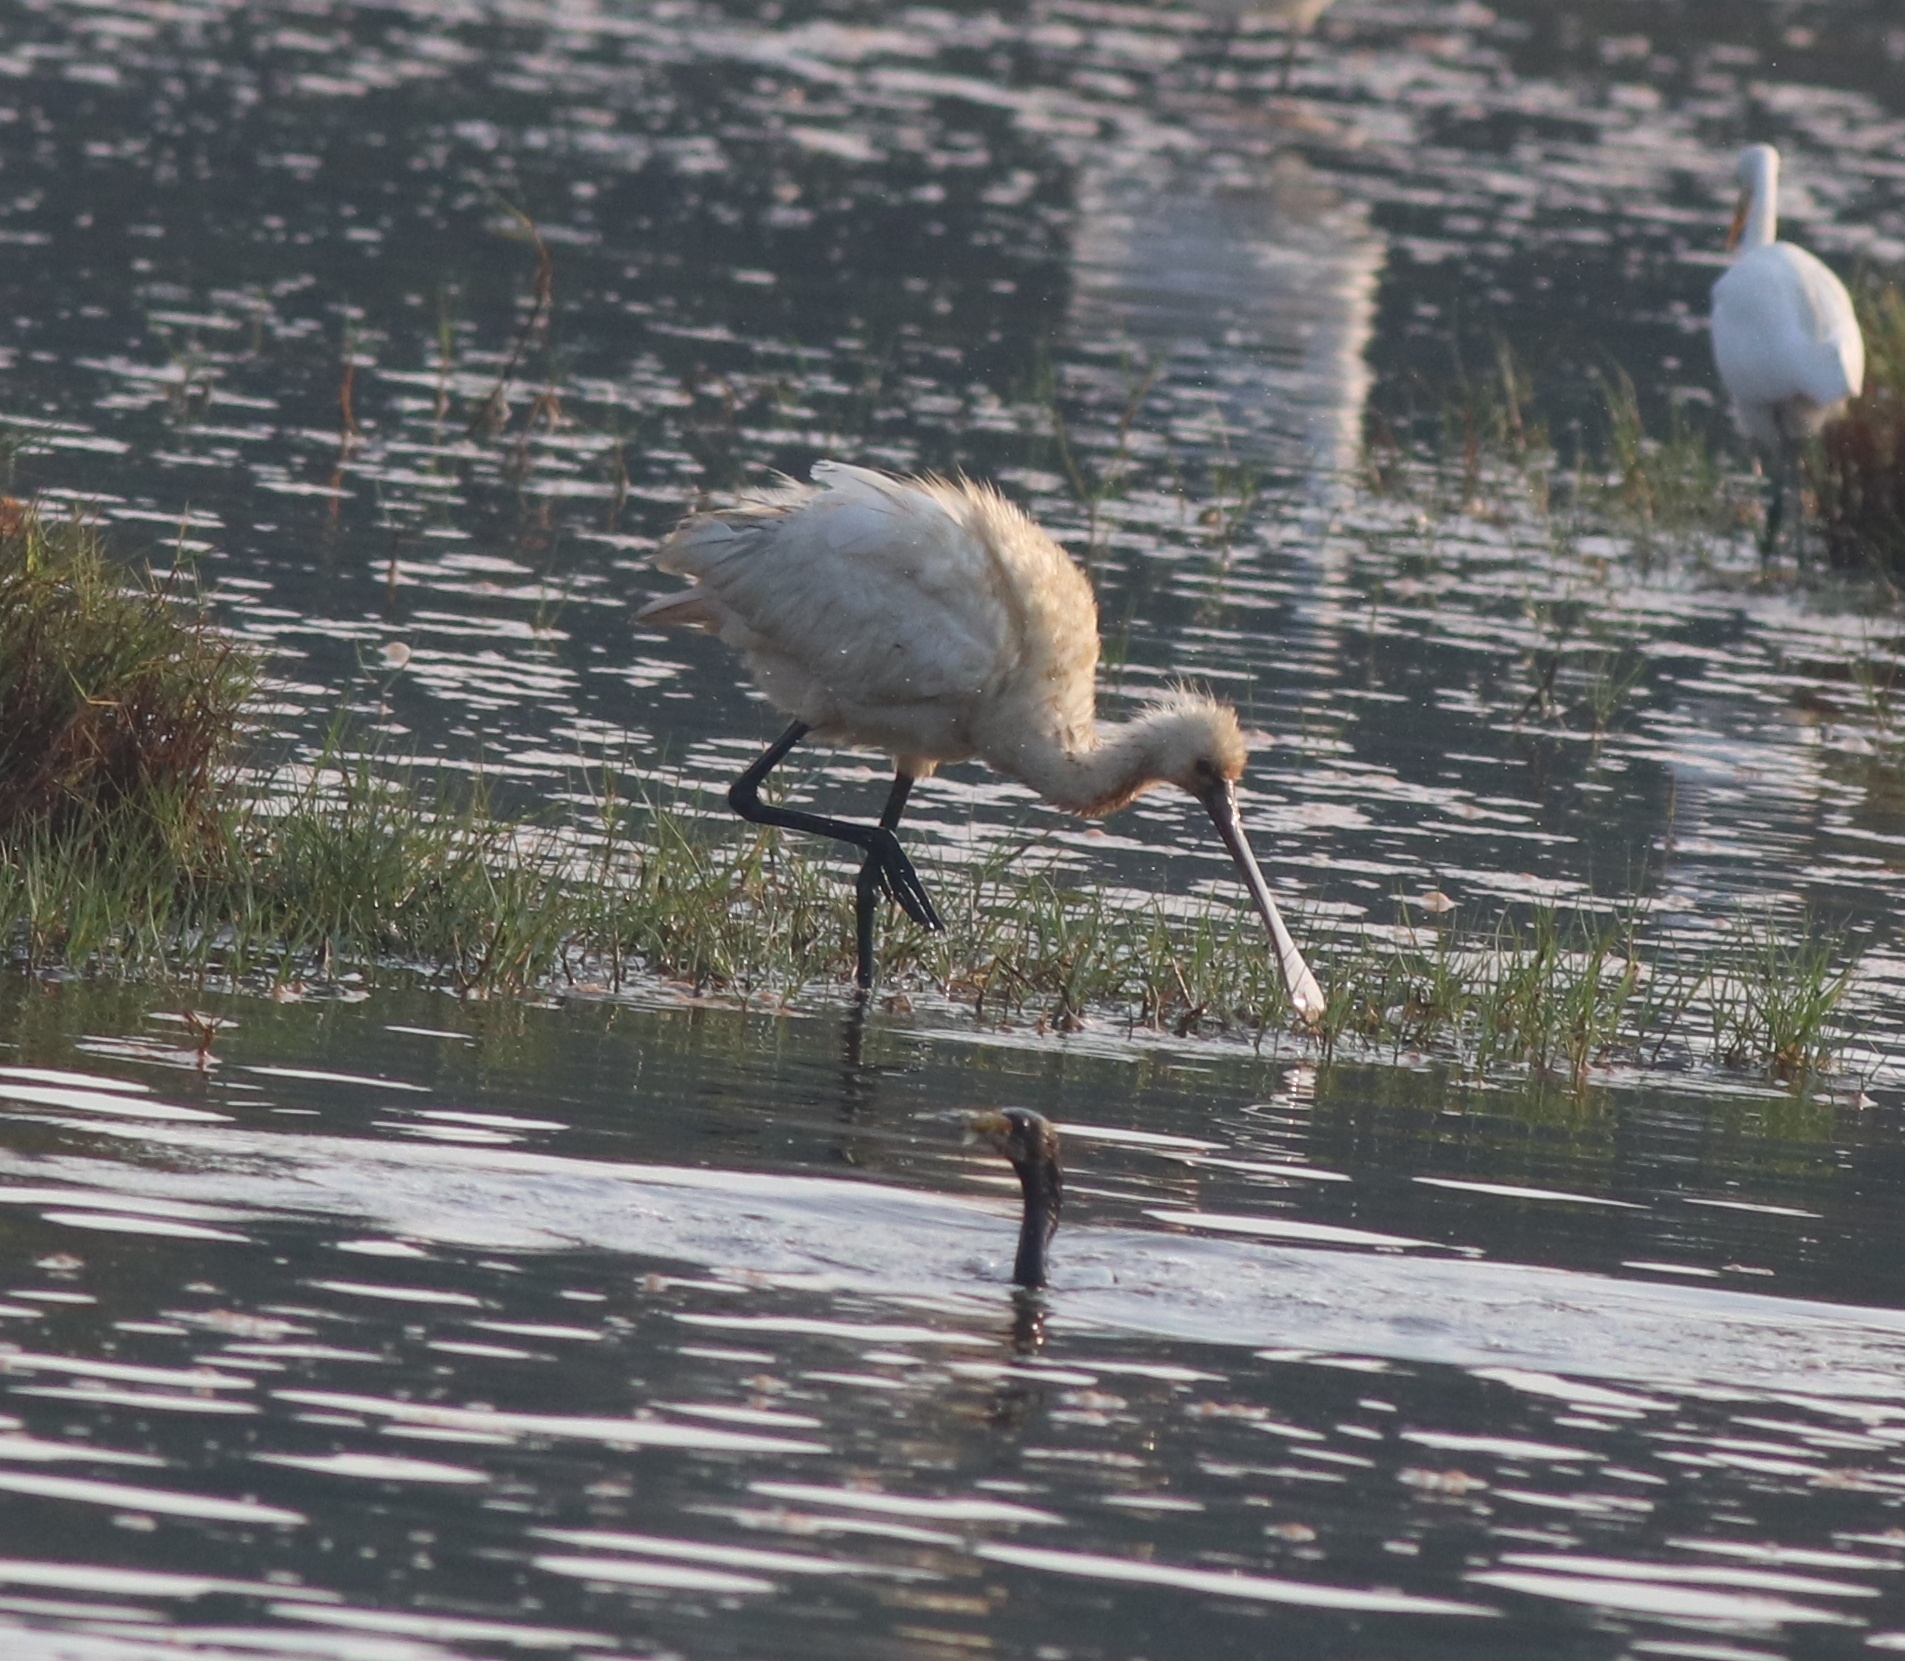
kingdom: Animalia
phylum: Chordata
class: Aves
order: Suliformes
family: Phalacrocoracidae
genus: Microcarbo
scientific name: Microcarbo niger
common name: Little cormorant
